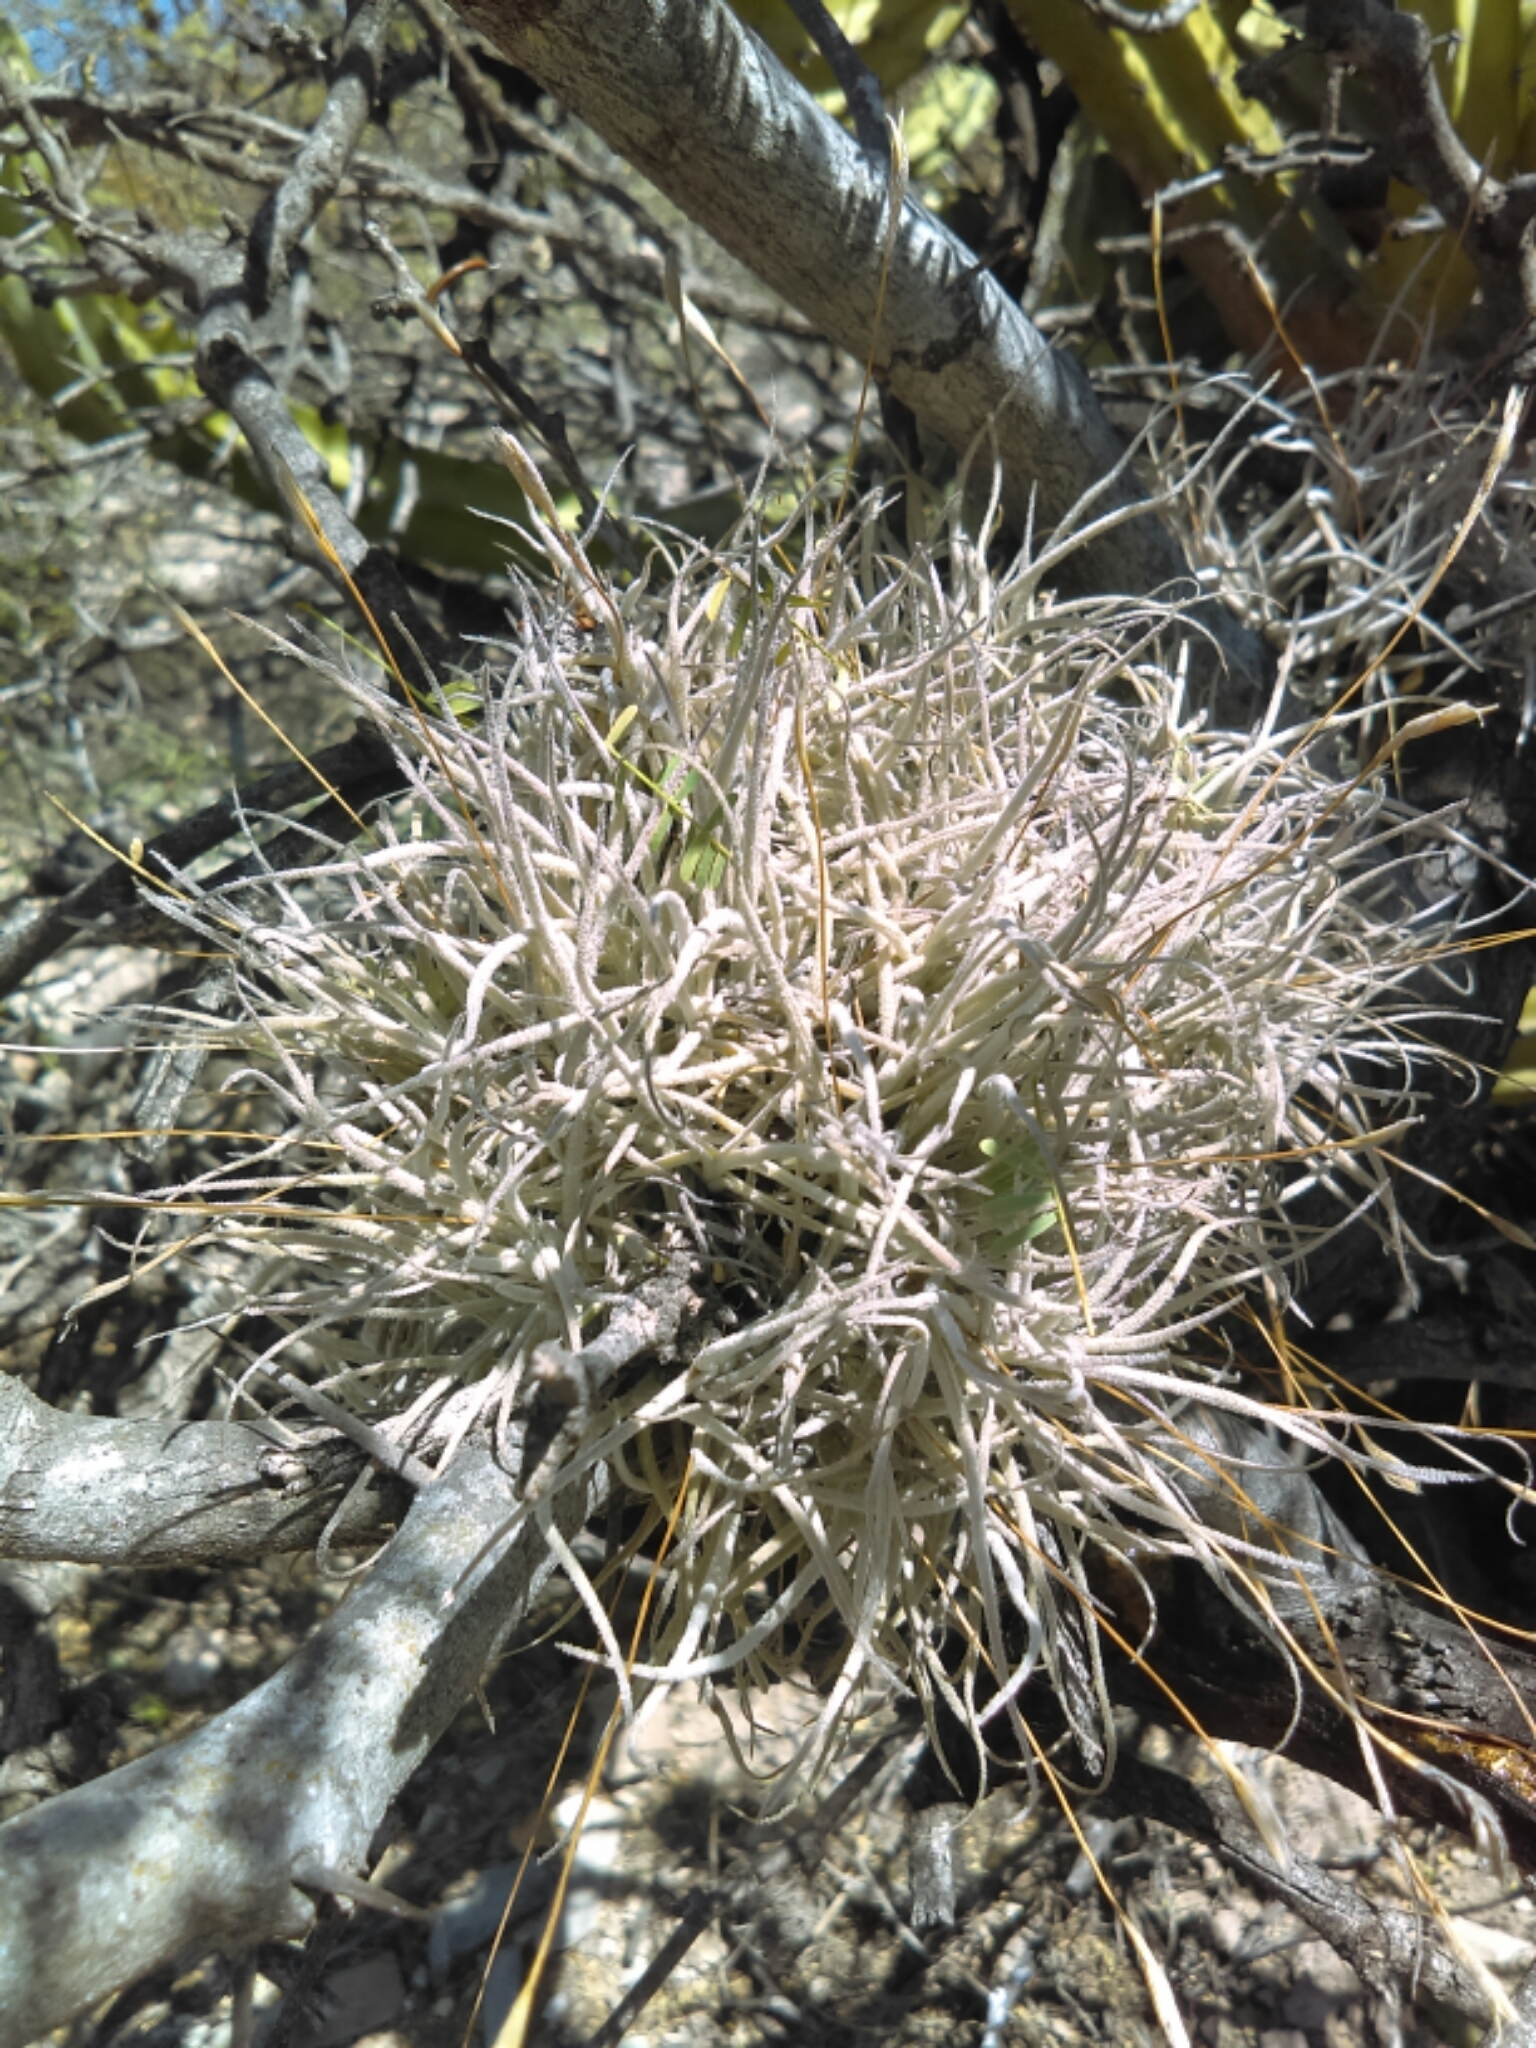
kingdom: Plantae
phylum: Tracheophyta
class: Liliopsida
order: Poales
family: Bromeliaceae
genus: Tillandsia
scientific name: Tillandsia recurvata
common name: Small ballmoss
